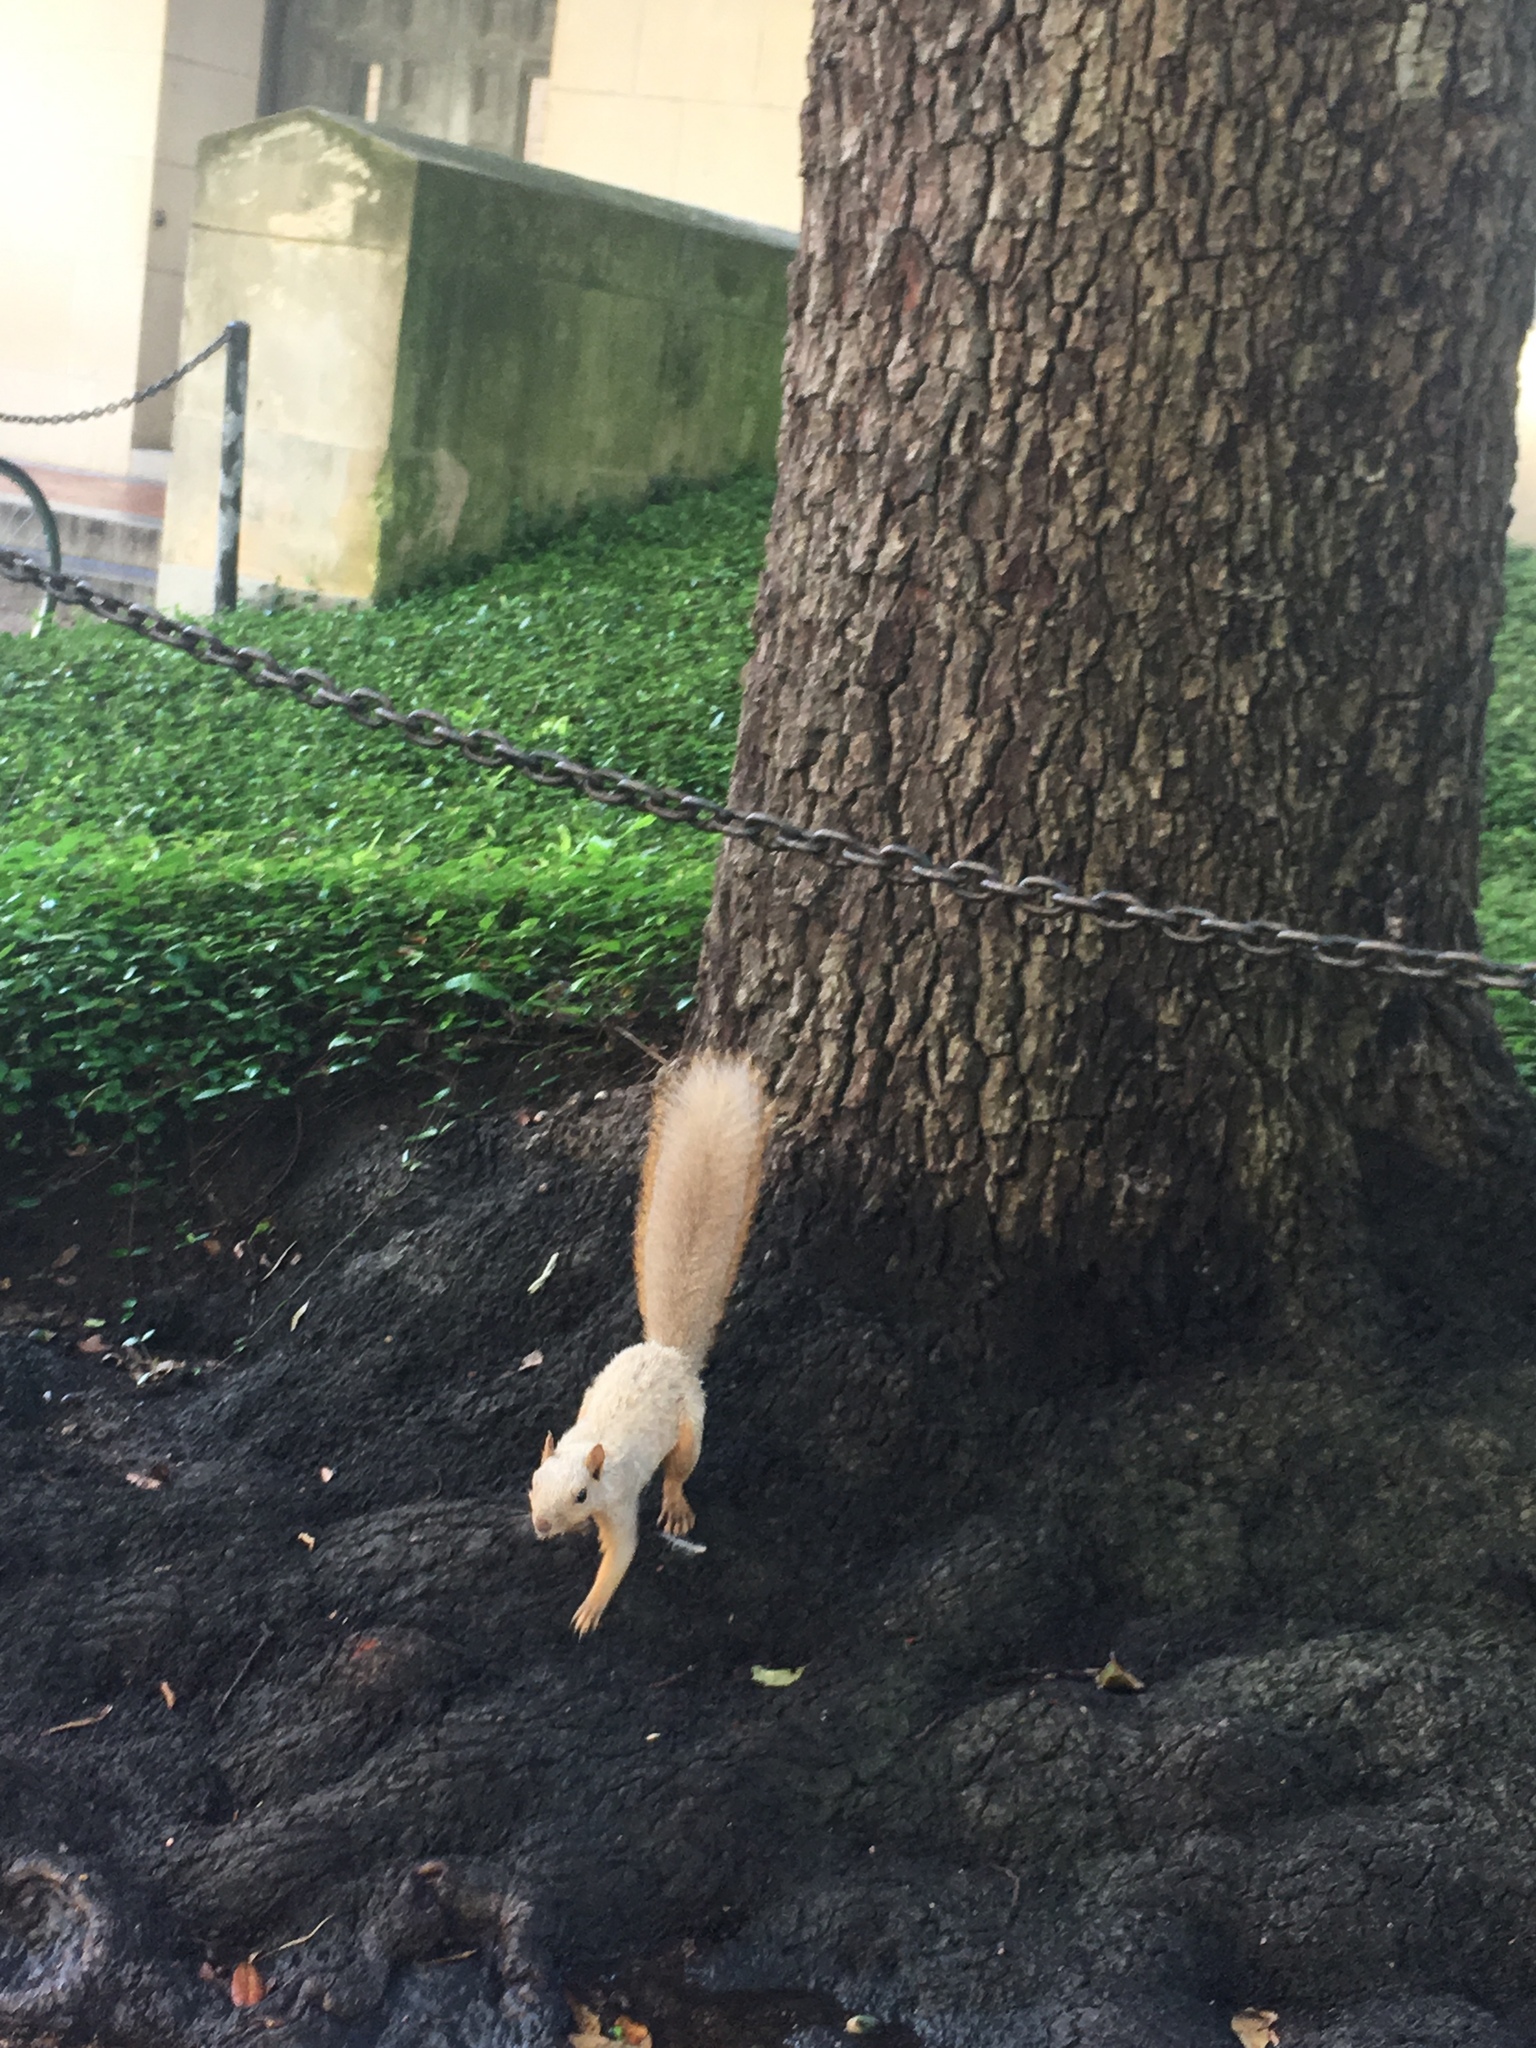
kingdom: Animalia
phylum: Chordata
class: Mammalia
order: Rodentia
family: Sciuridae
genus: Sciurus
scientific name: Sciurus niger
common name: Fox squirrel
